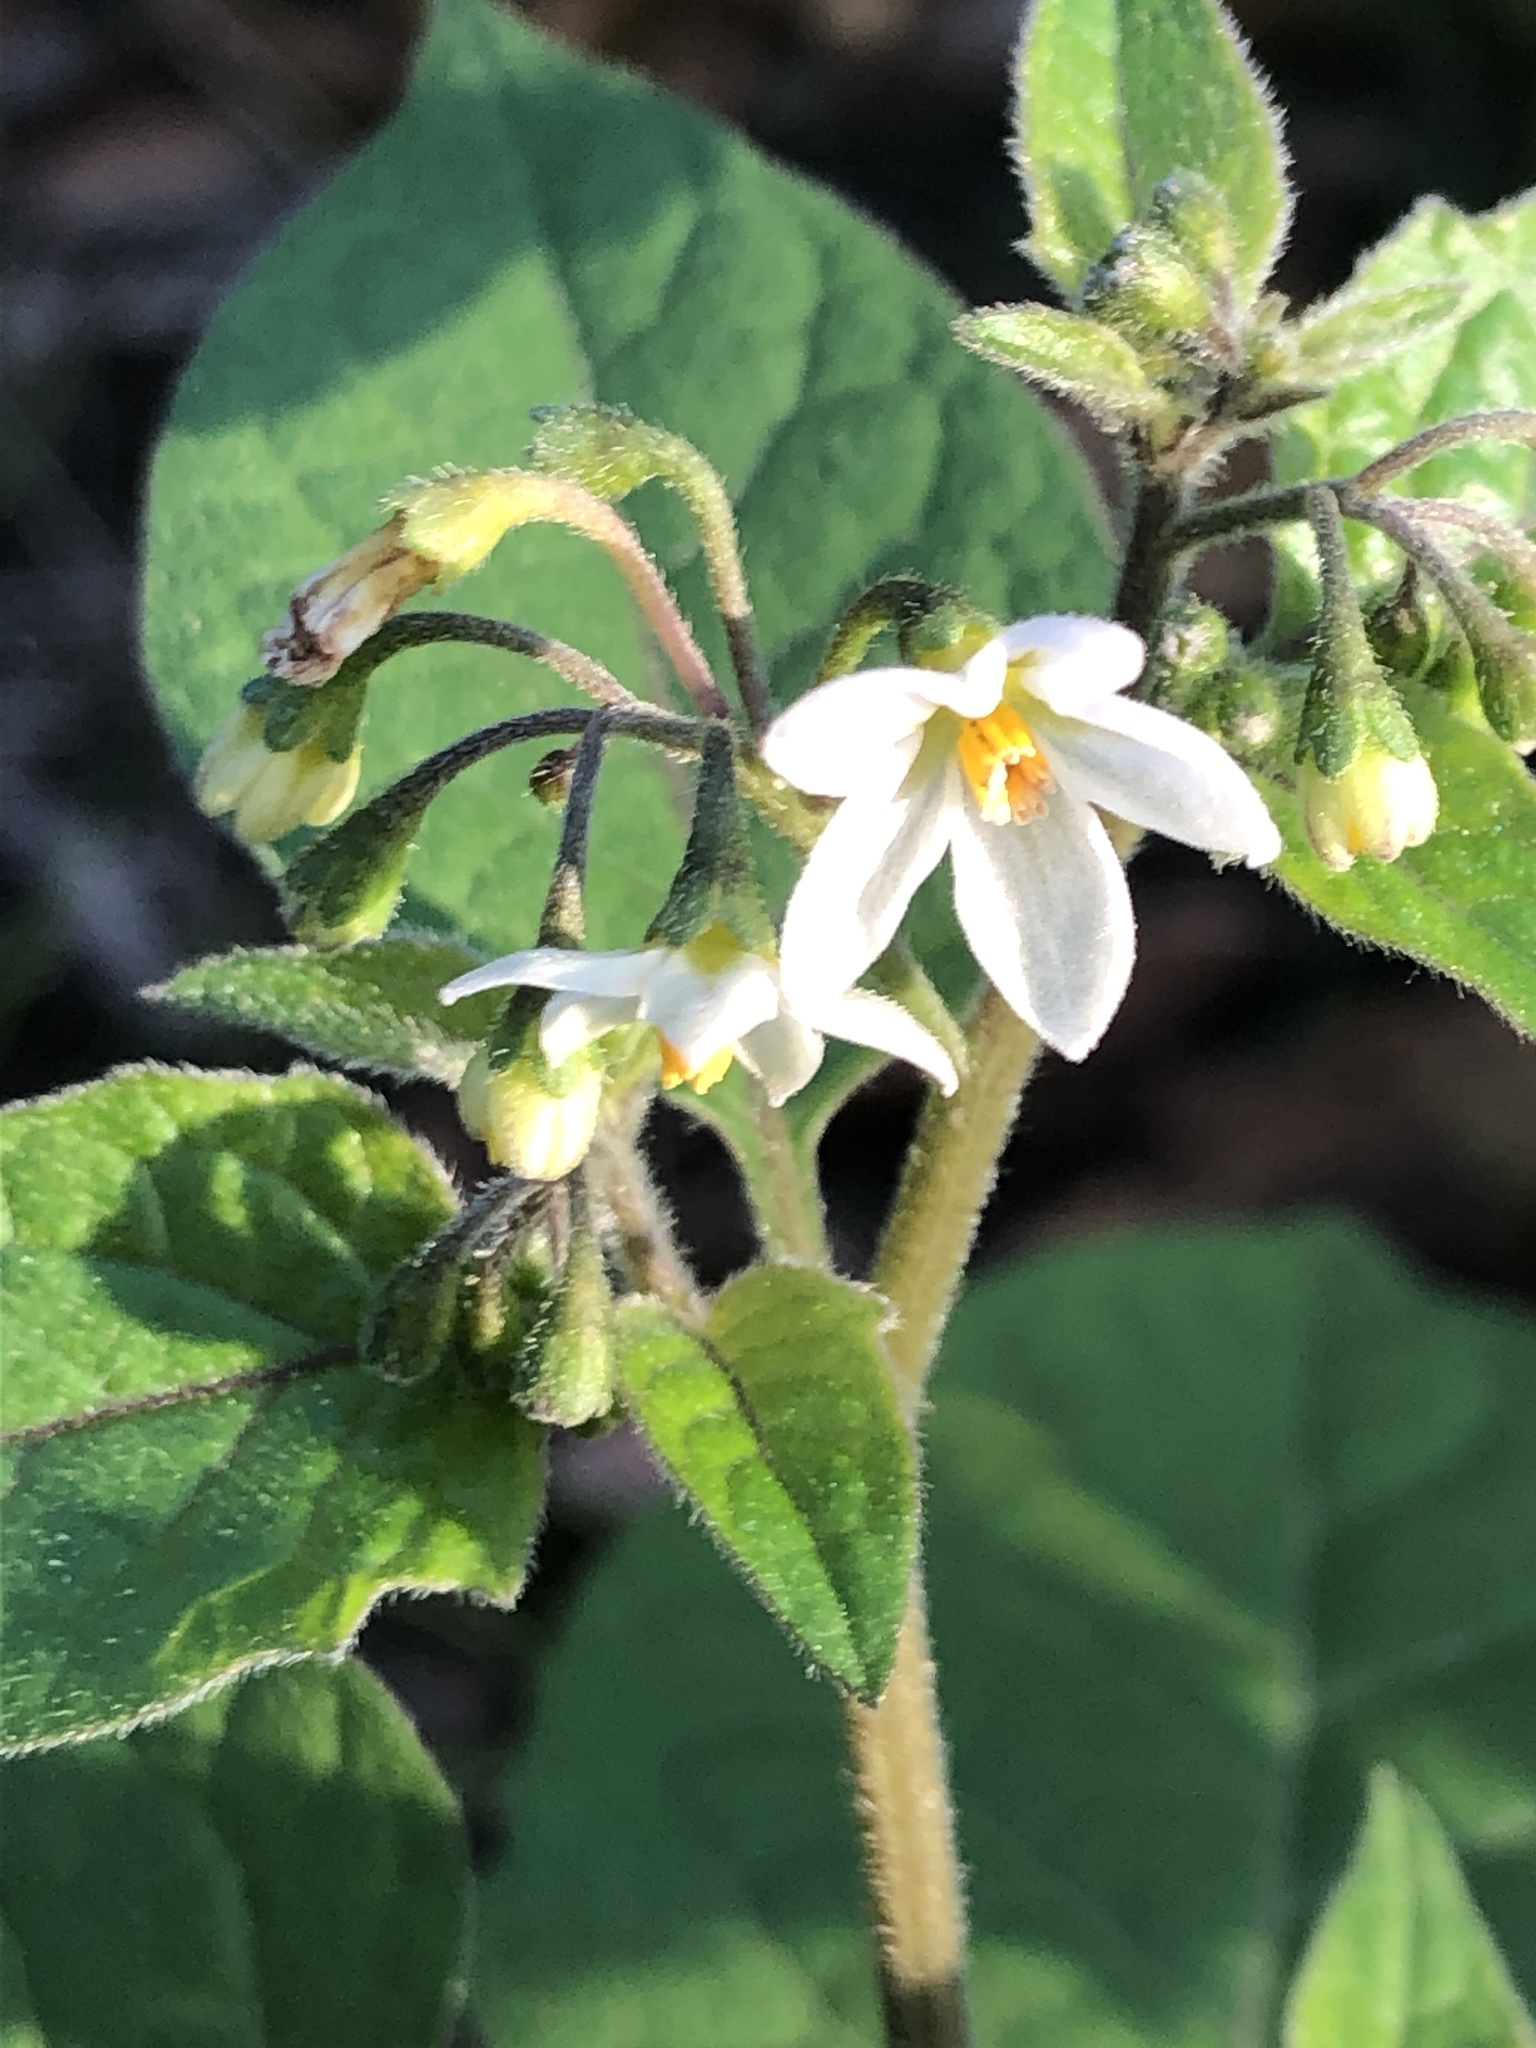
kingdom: Plantae
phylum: Tracheophyta
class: Magnoliopsida
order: Solanales
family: Solanaceae
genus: Solanum
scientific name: Solanum nigrum
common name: Black nightshade
